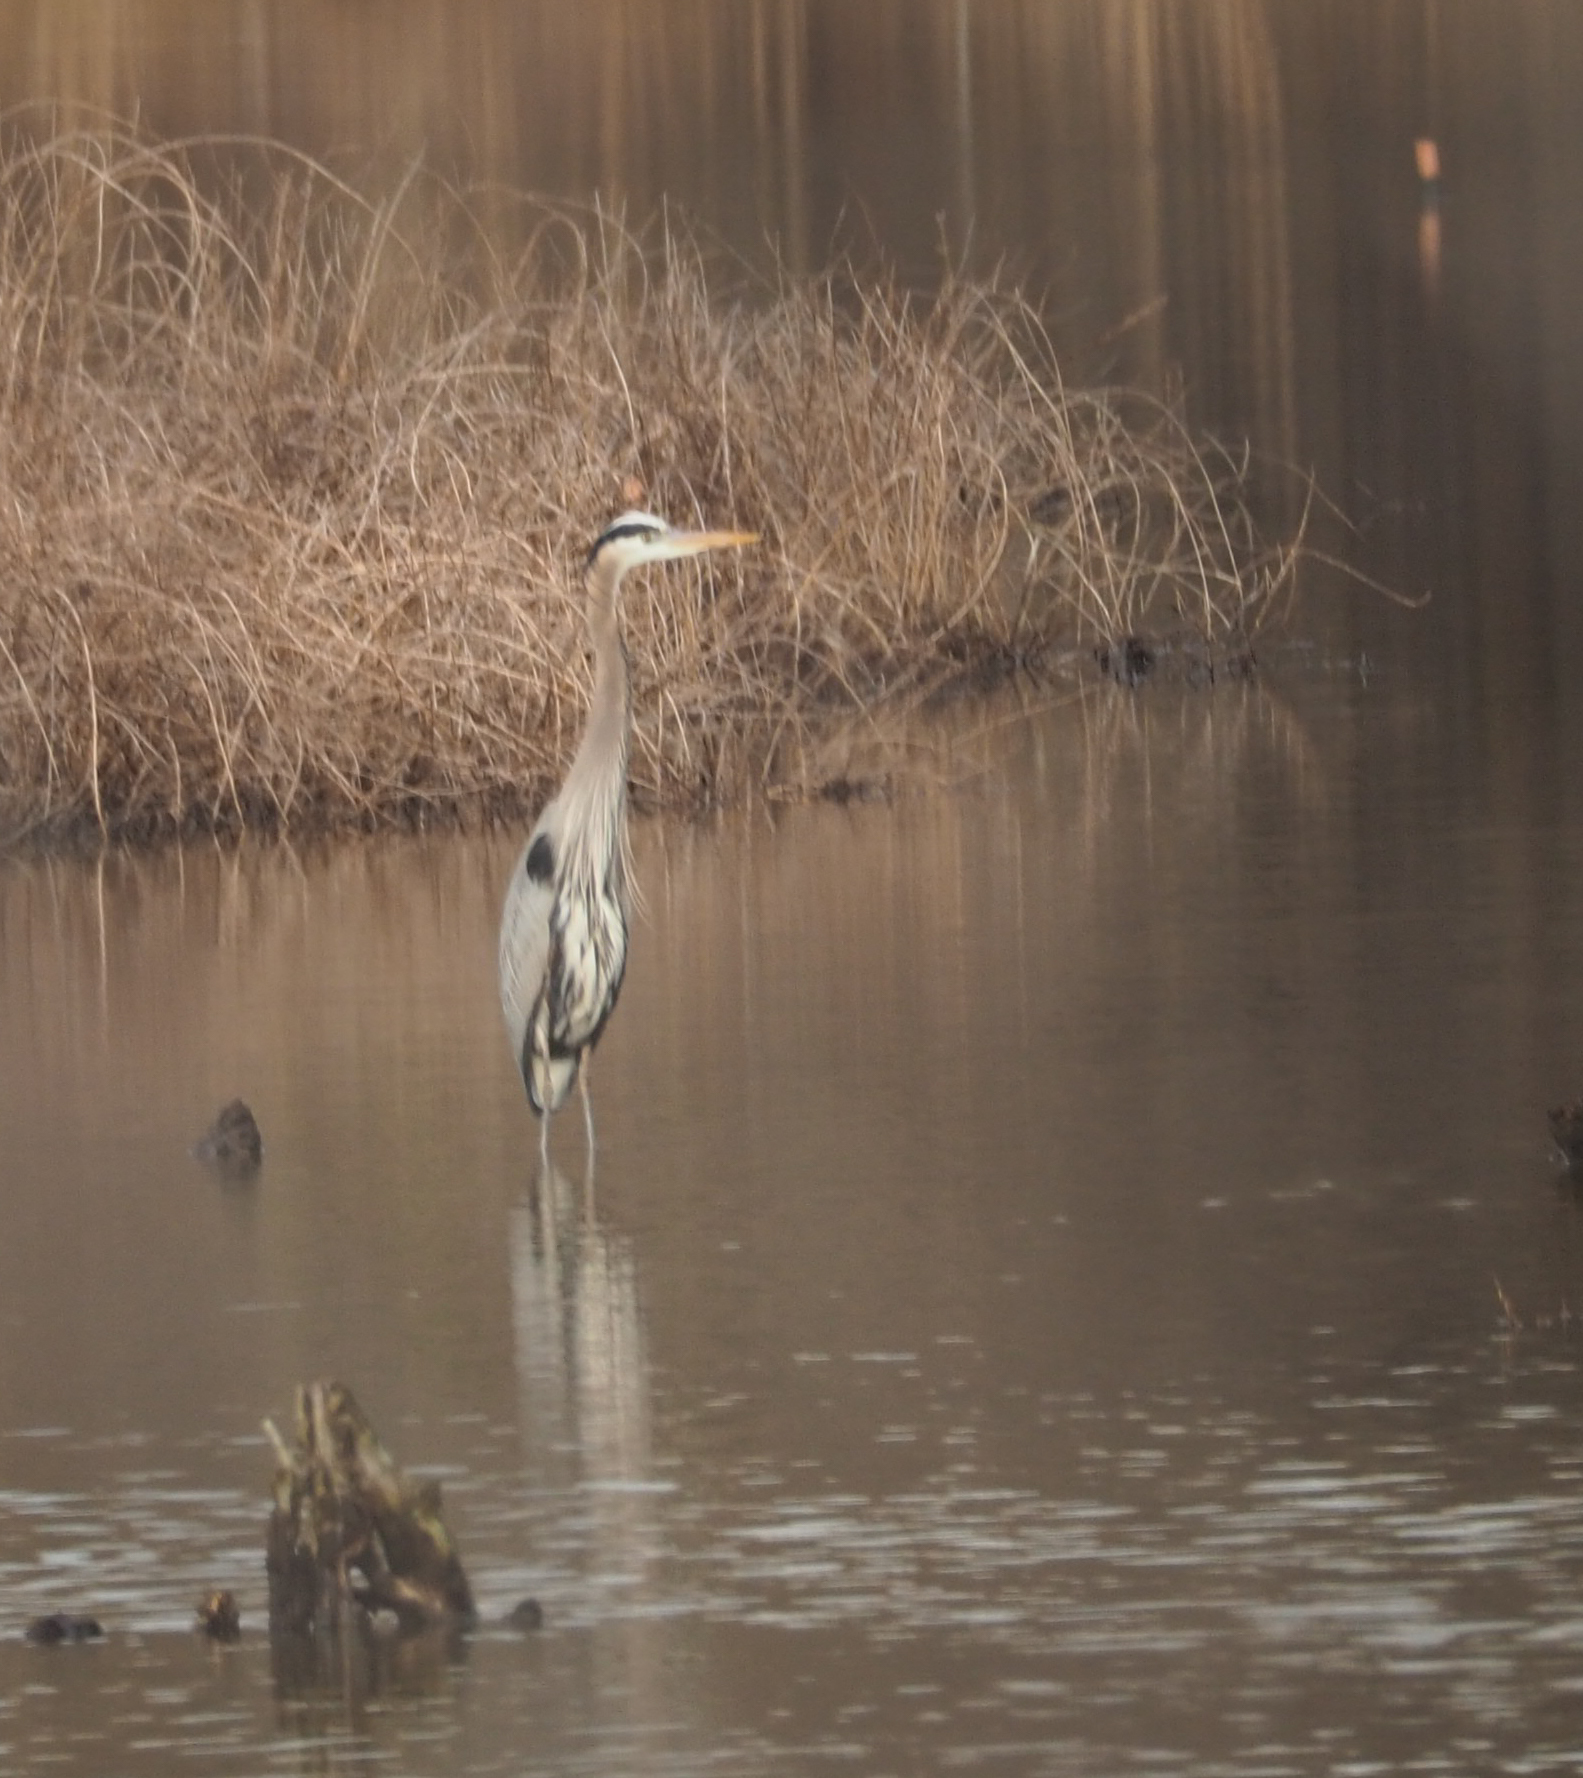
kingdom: Animalia
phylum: Chordata
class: Aves
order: Pelecaniformes
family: Ardeidae
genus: Ardea
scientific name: Ardea herodias
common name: Great blue heron
